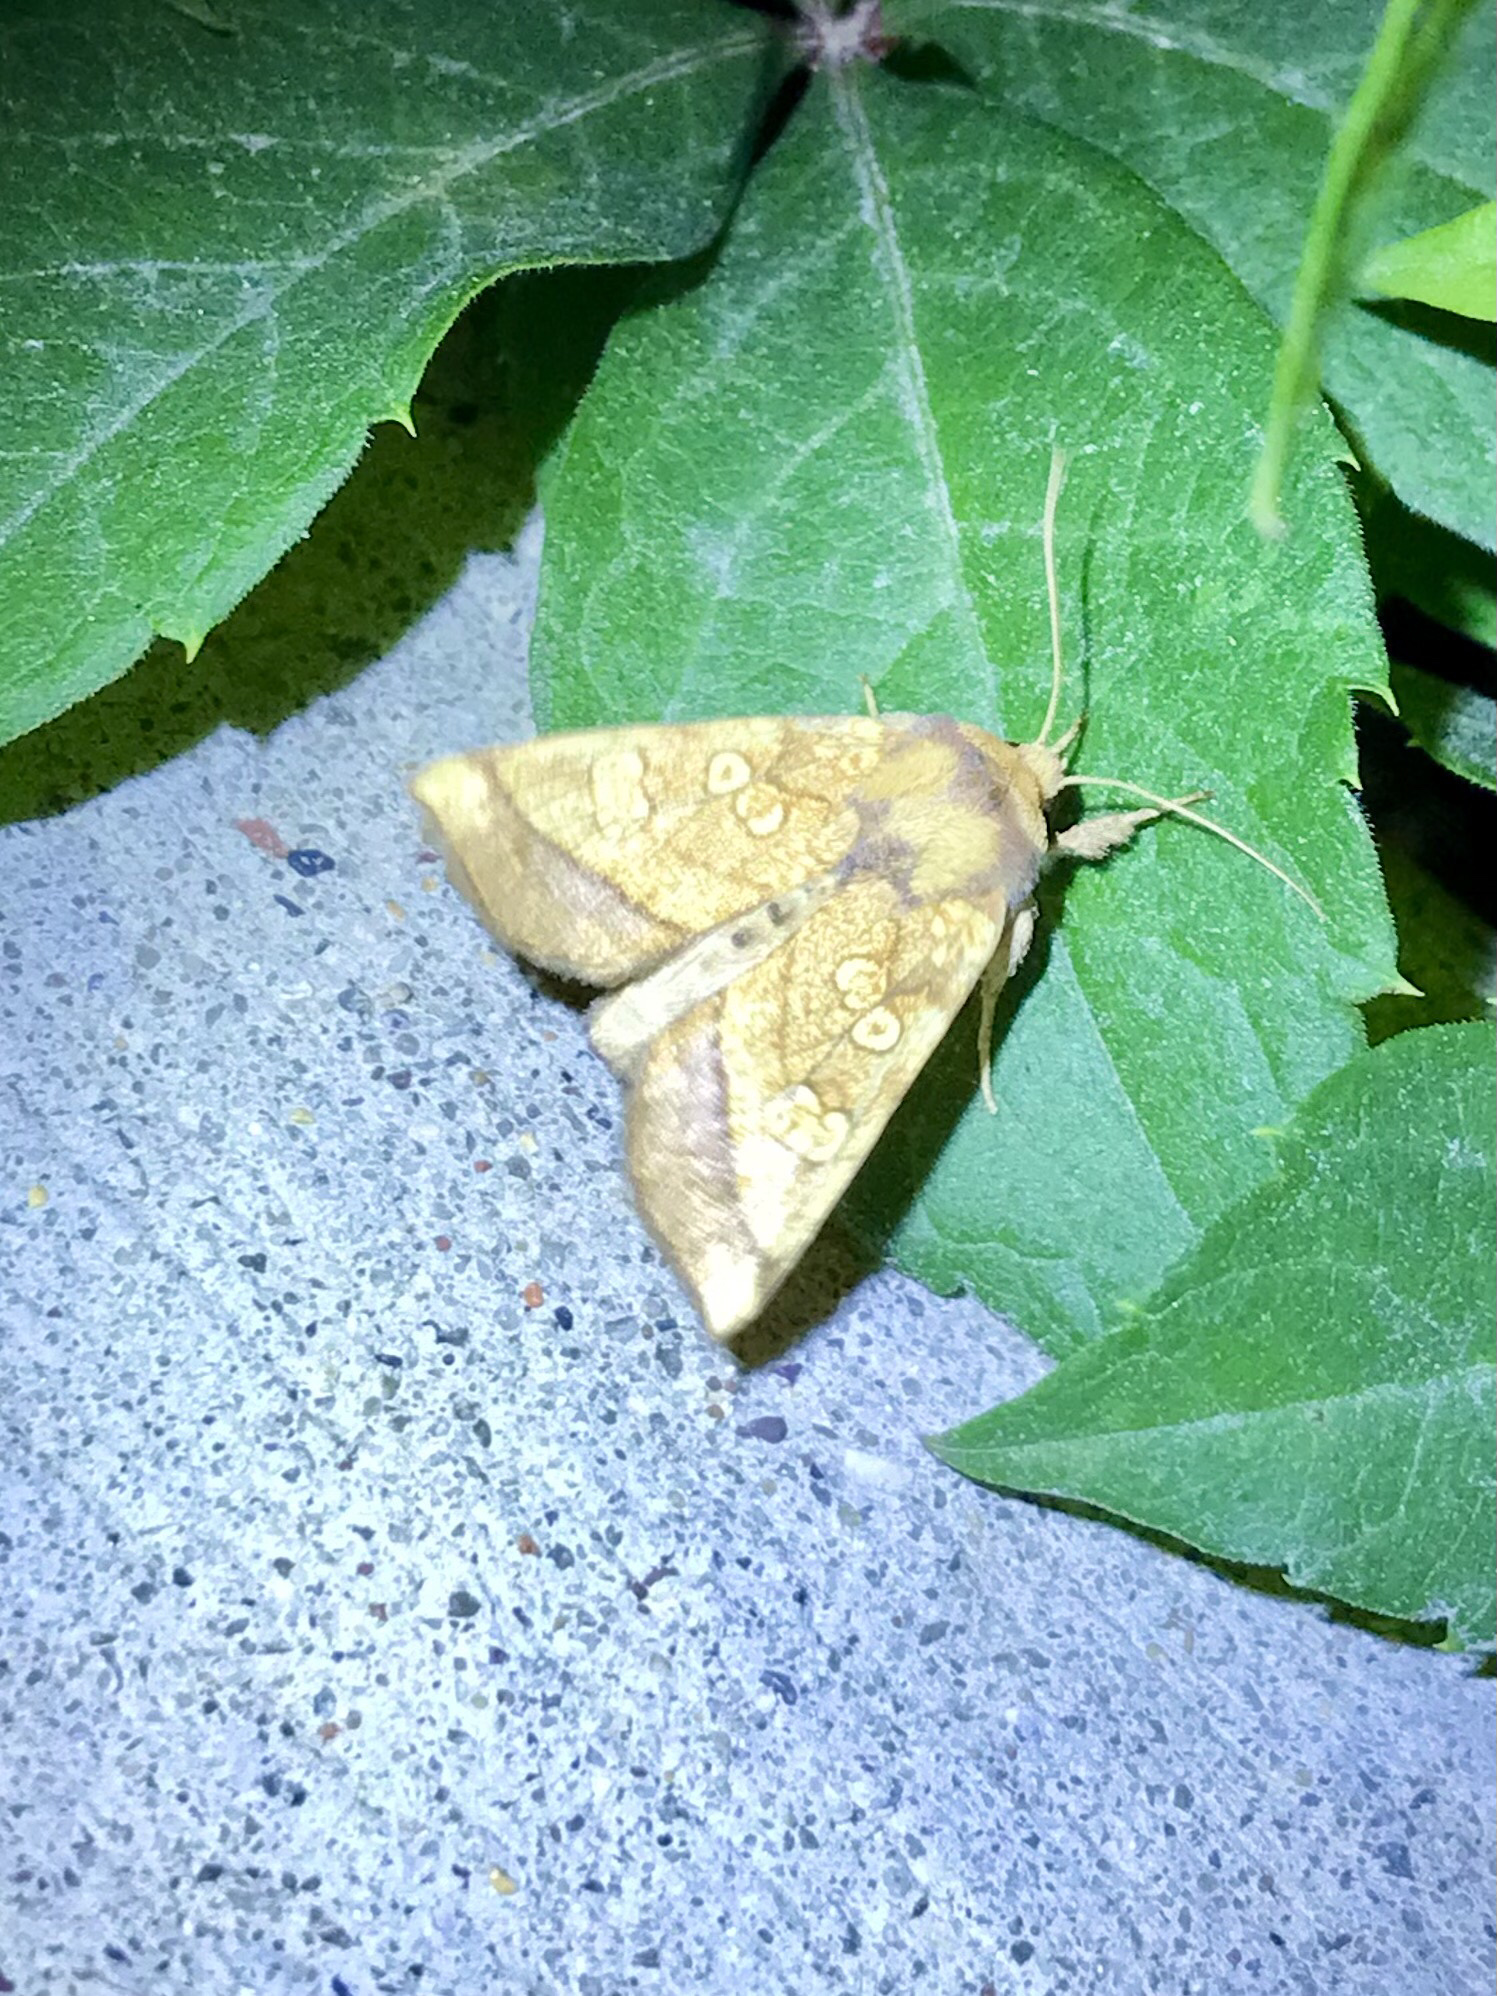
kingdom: Animalia
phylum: Arthropoda
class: Insecta
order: Lepidoptera
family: Noctuidae
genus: Papaipema
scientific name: Papaipema rigida
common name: Rigid sunflower borer moth
